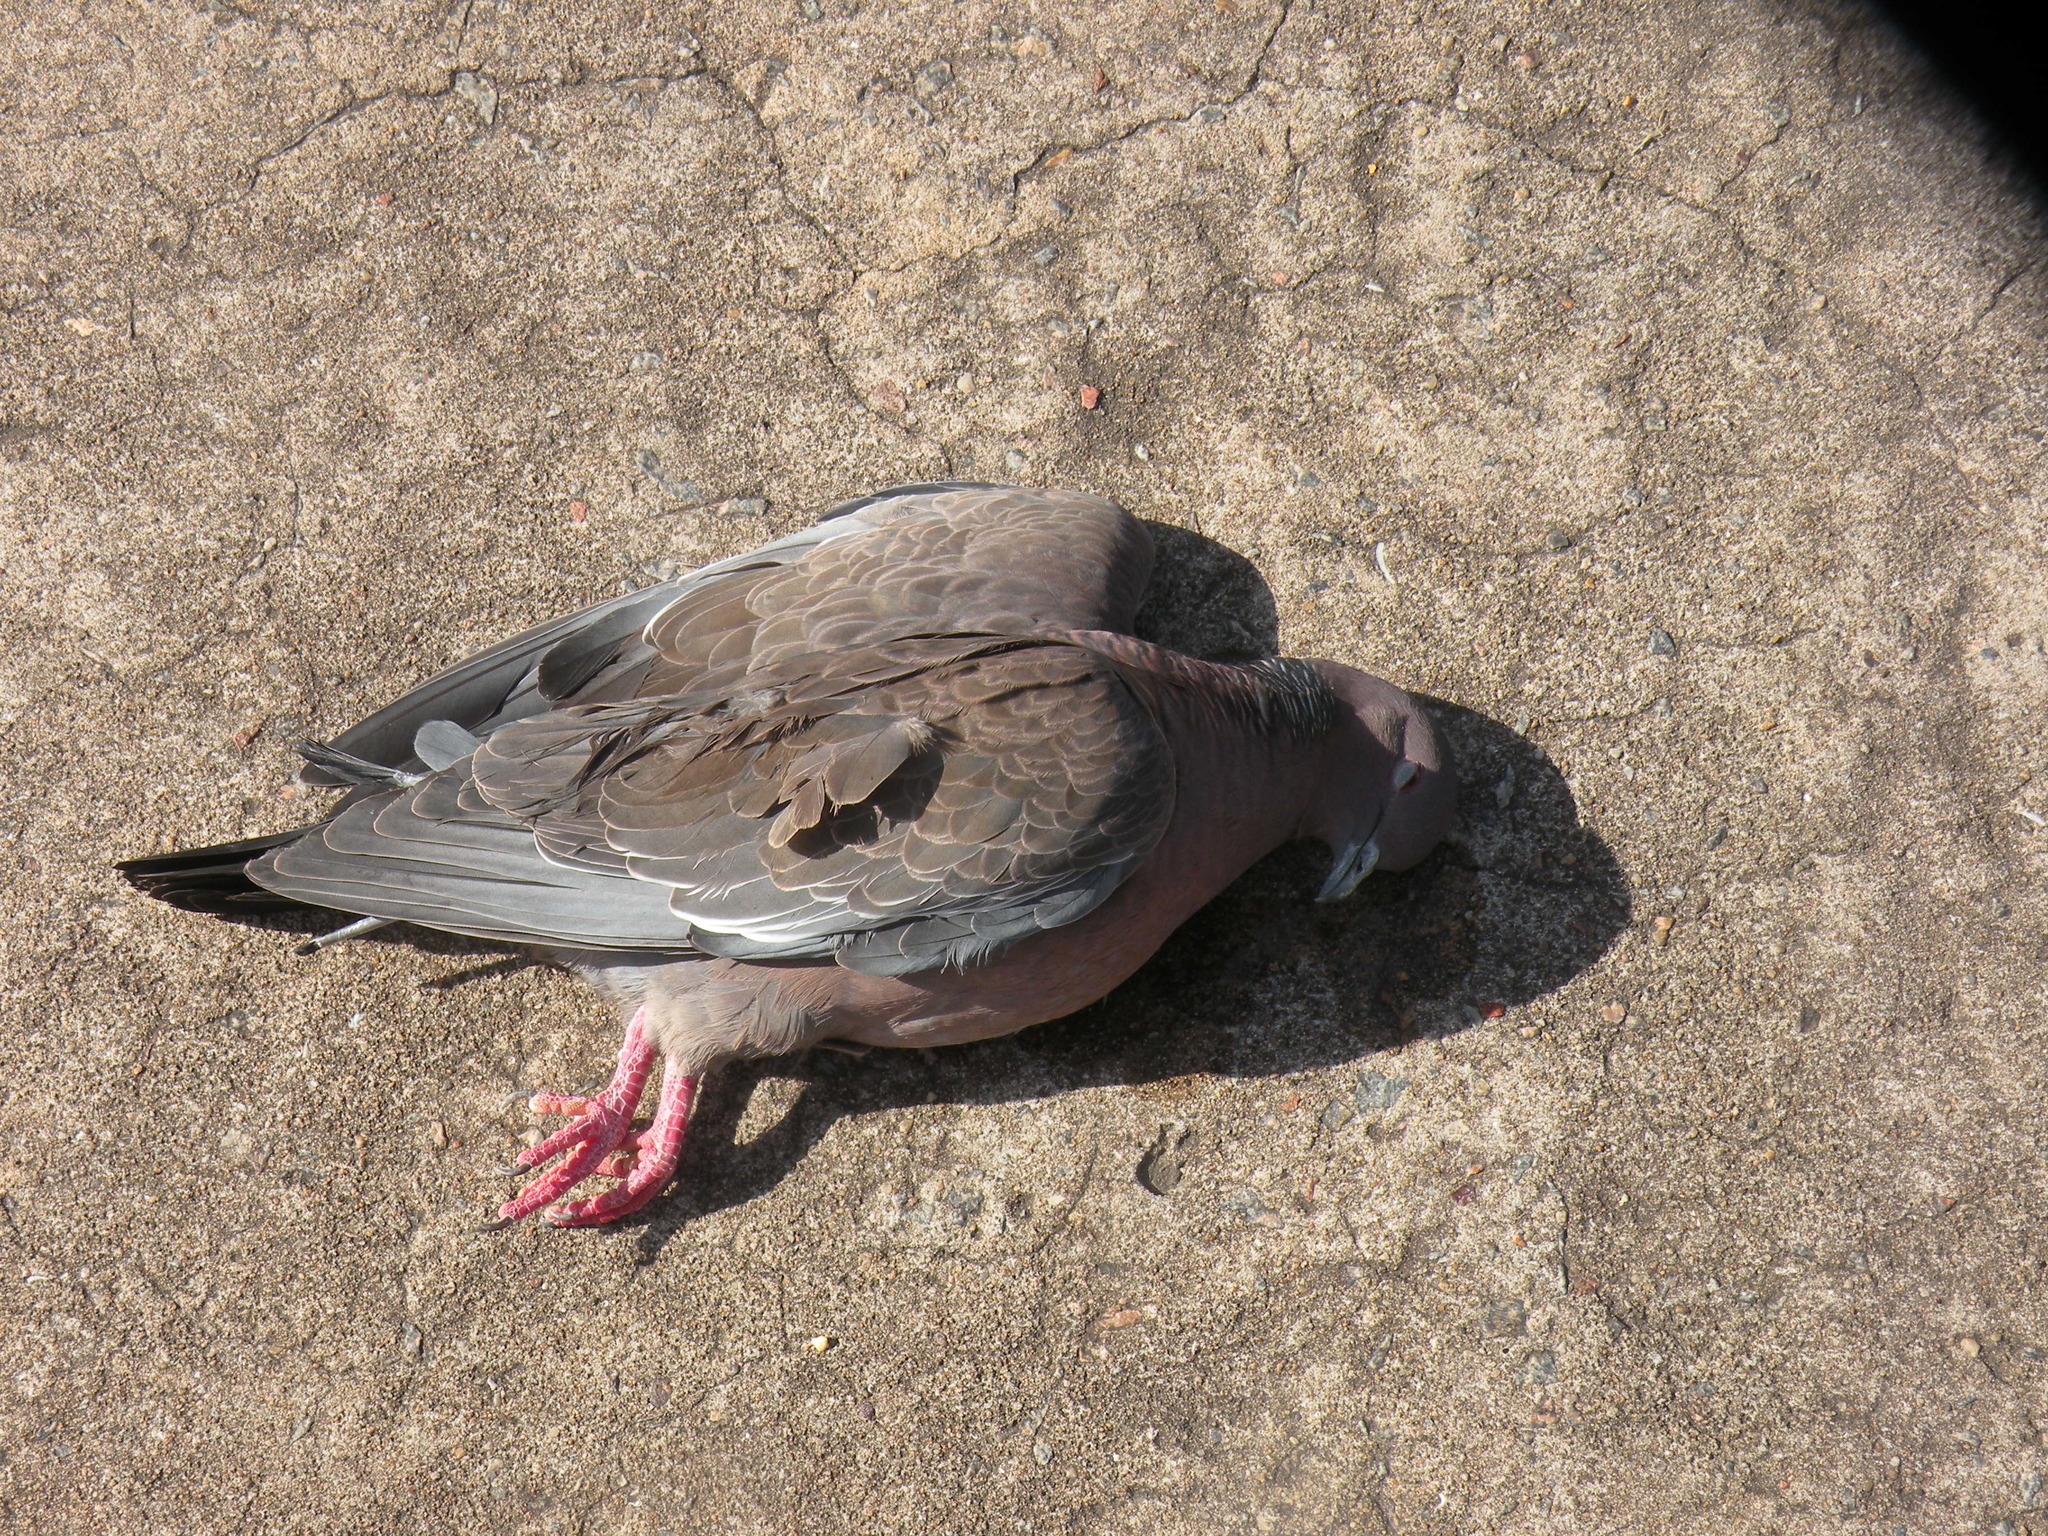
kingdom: Animalia
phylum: Chordata
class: Aves
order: Columbiformes
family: Columbidae
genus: Patagioenas
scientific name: Patagioenas picazuro
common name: Picazuro pigeon
